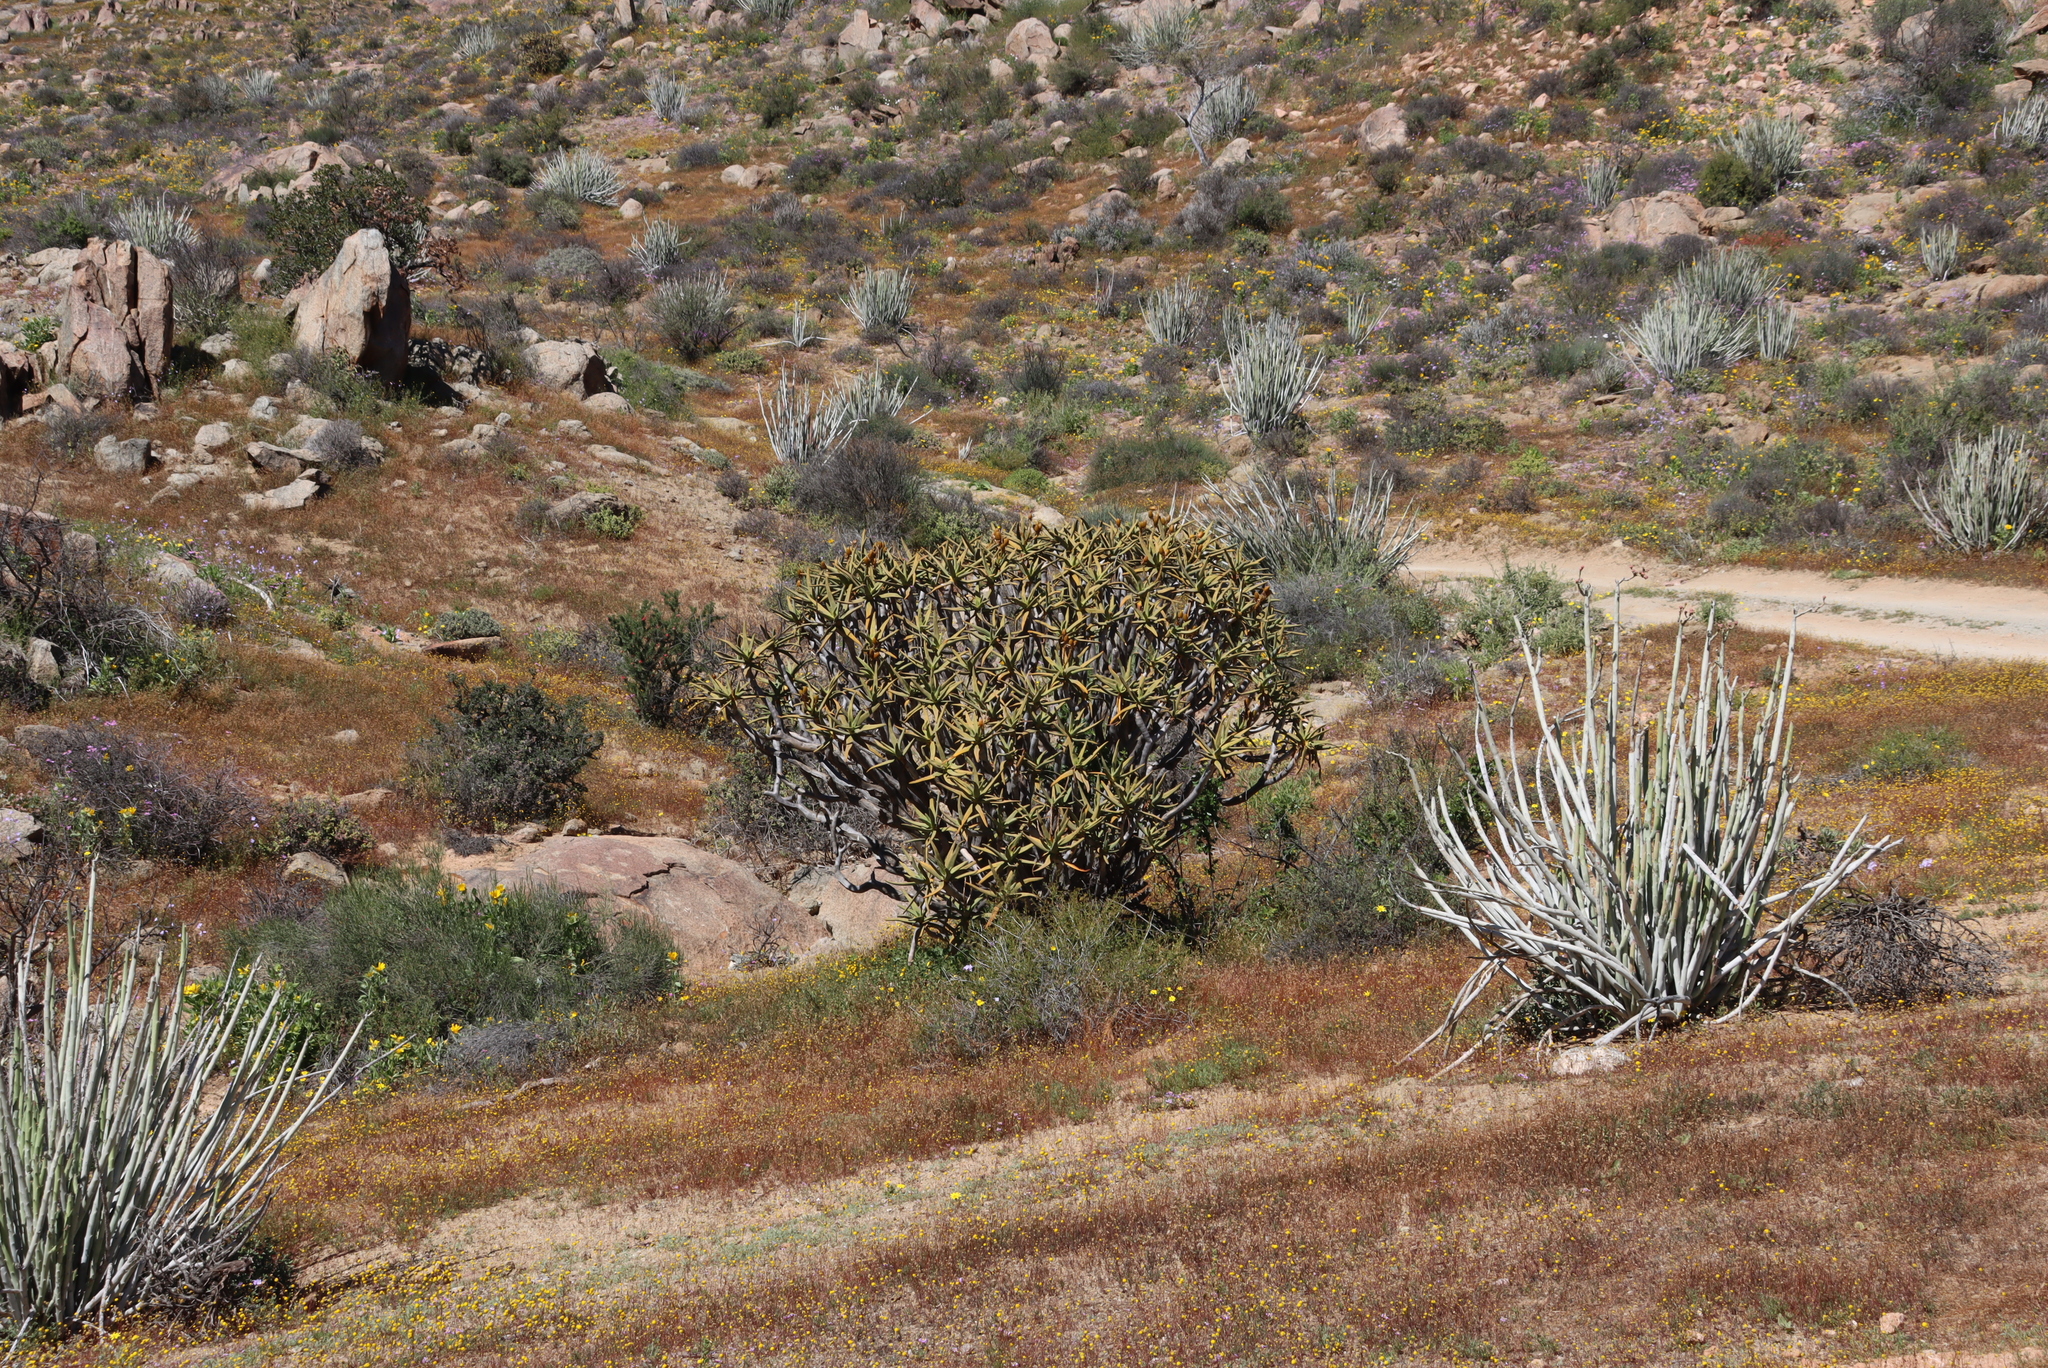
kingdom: Plantae
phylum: Tracheophyta
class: Liliopsida
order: Asparagales
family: Asphodelaceae
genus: Aloidendron
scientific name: Aloidendron ramosissimum
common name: Bush quiver tree
